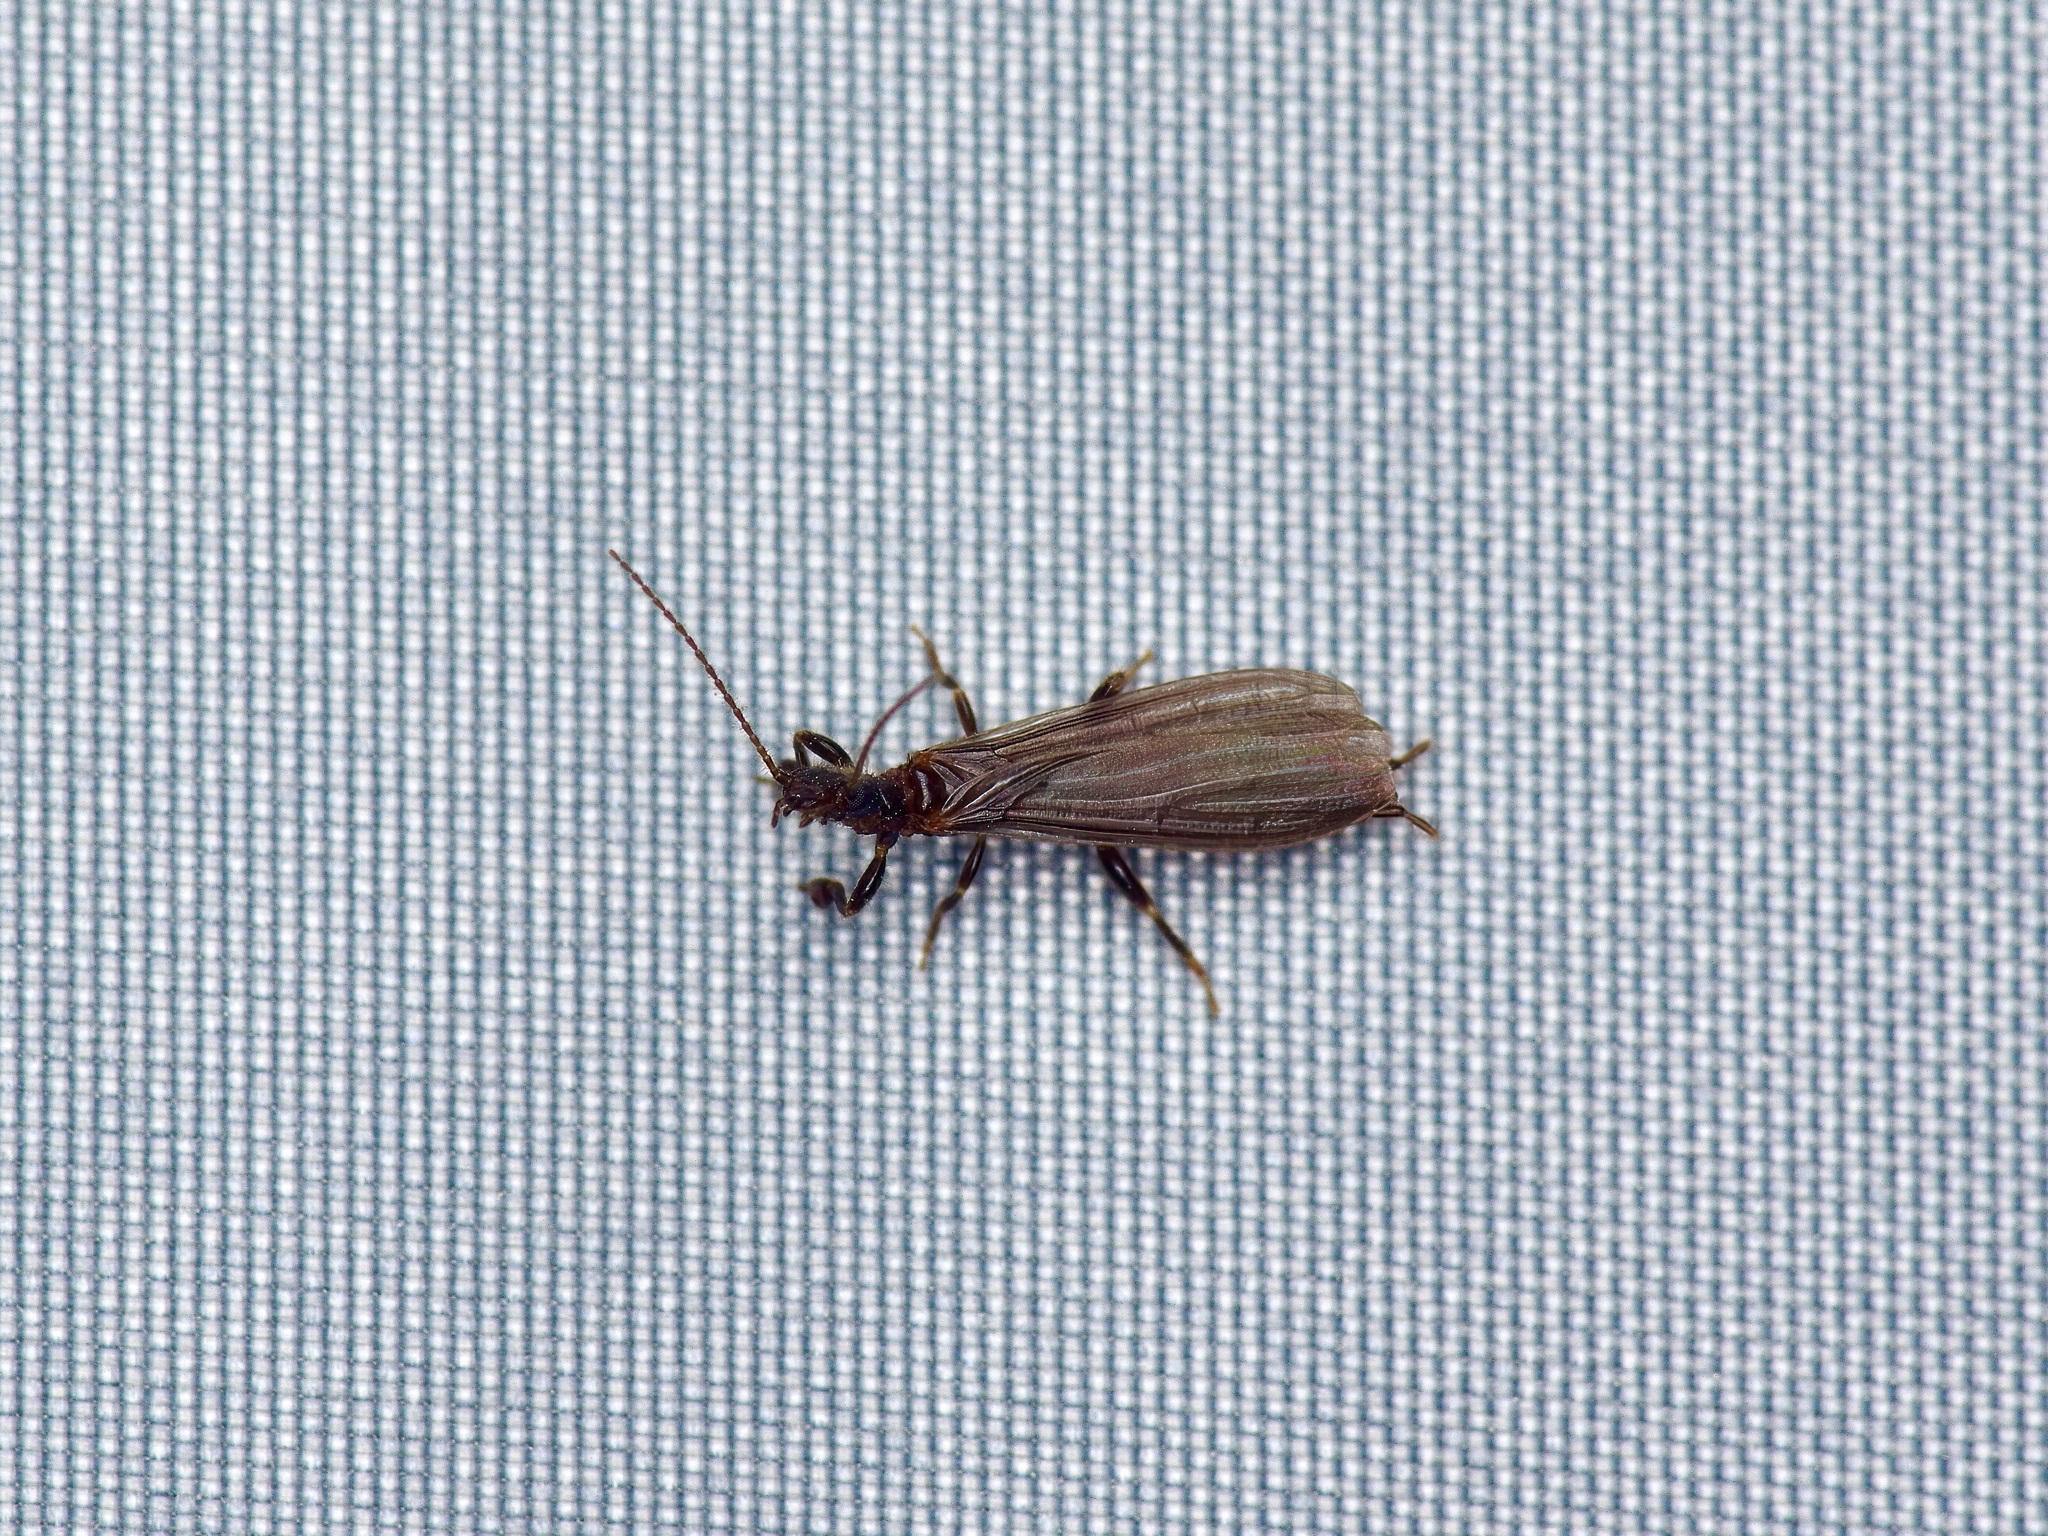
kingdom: Animalia
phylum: Arthropoda
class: Insecta
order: Embioptera
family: Oligotomidae
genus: Oligotoma
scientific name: Oligotoma nigra
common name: Black webspinner
